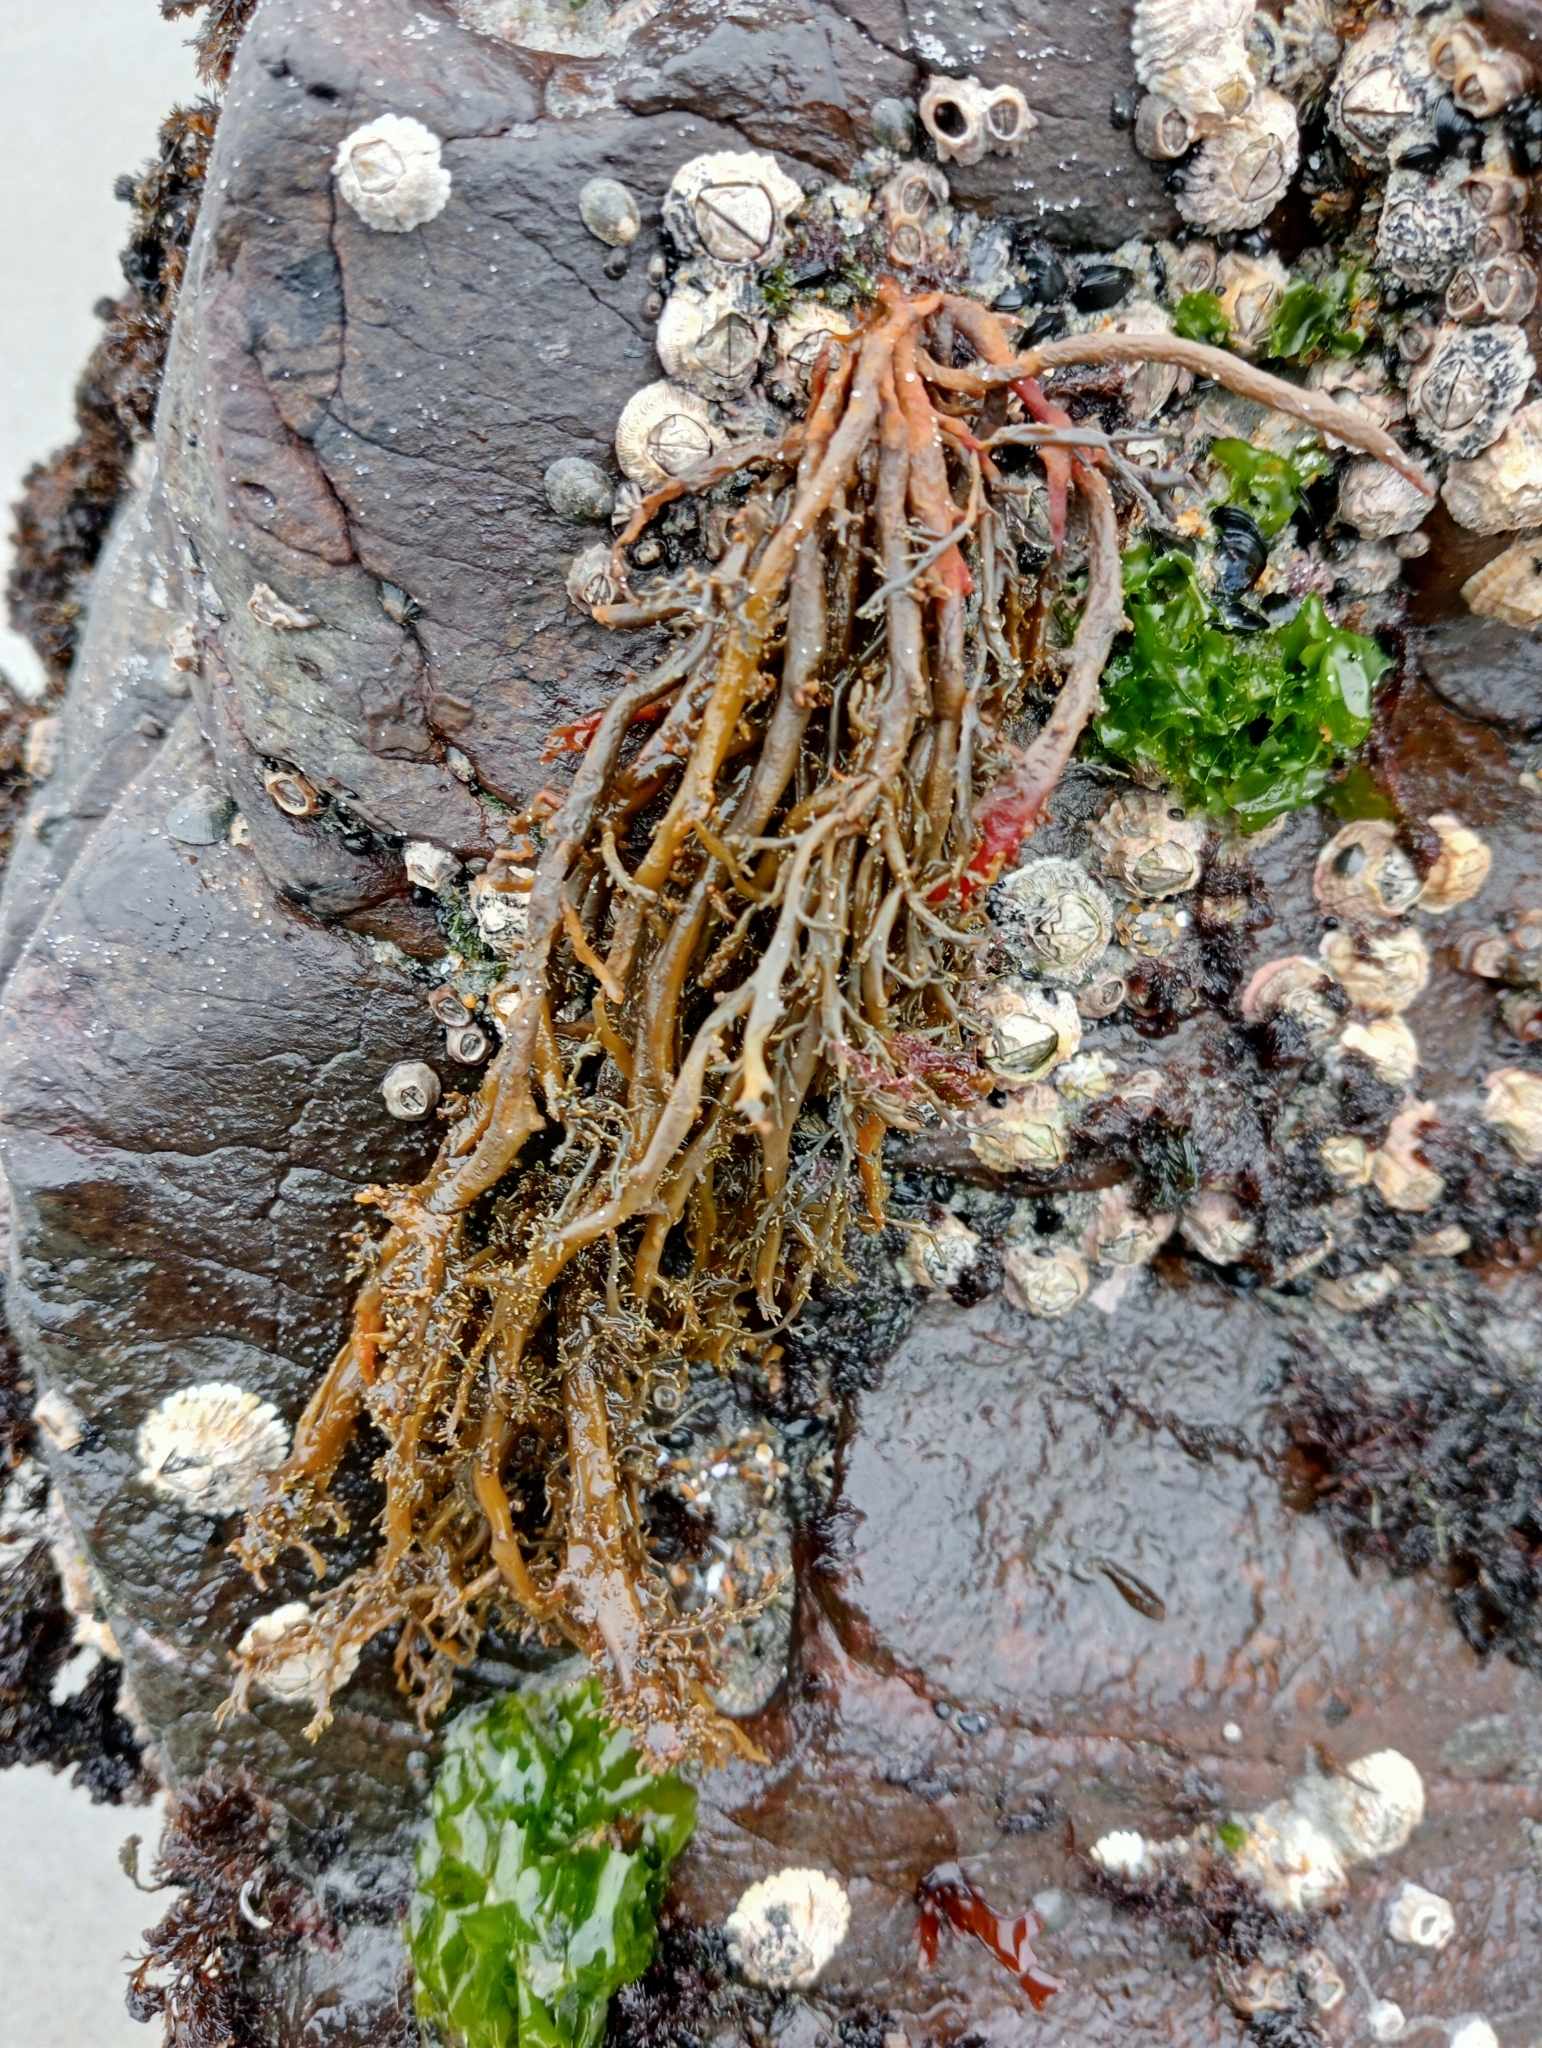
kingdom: Chromista
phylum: Ochrophyta
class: Phaeophyceae
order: Scytothamnales
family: Scytothamnaceae
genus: Scytothamnus
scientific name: Scytothamnus australis
